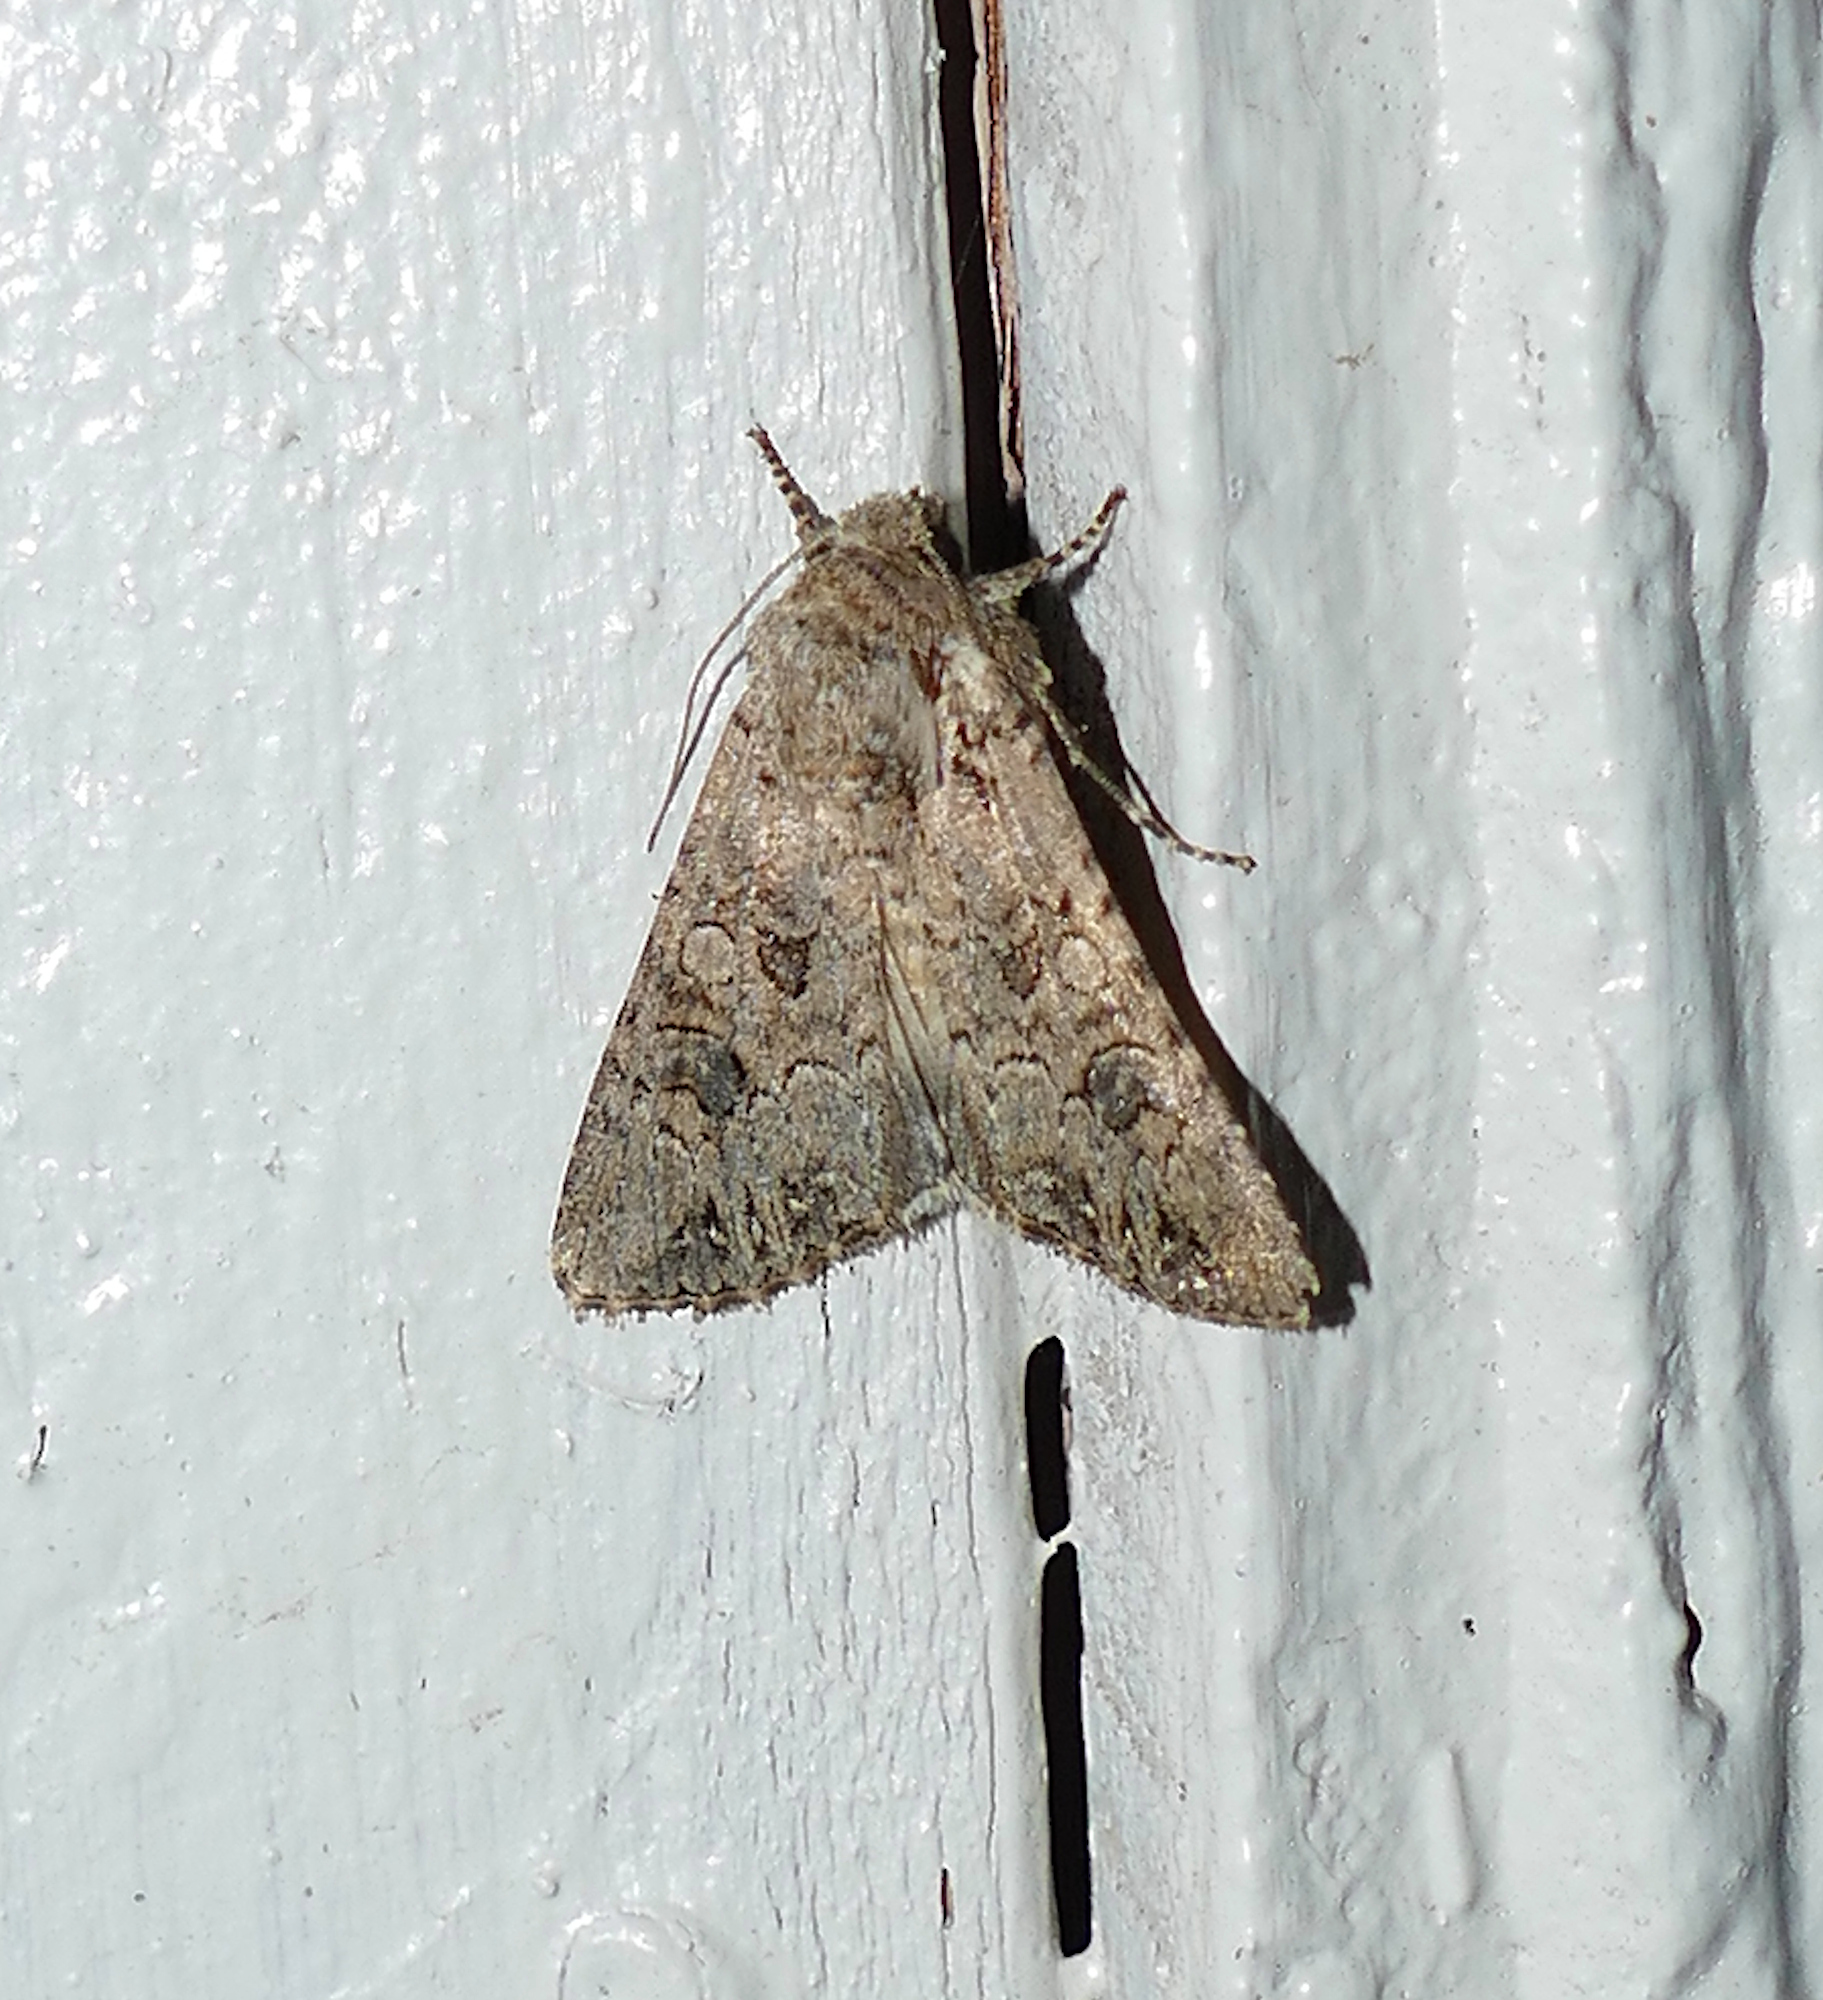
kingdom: Animalia
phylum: Arthropoda
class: Insecta
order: Lepidoptera
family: Noctuidae
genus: Anarta
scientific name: Anarta trifolii
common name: Clover cutworm moth
